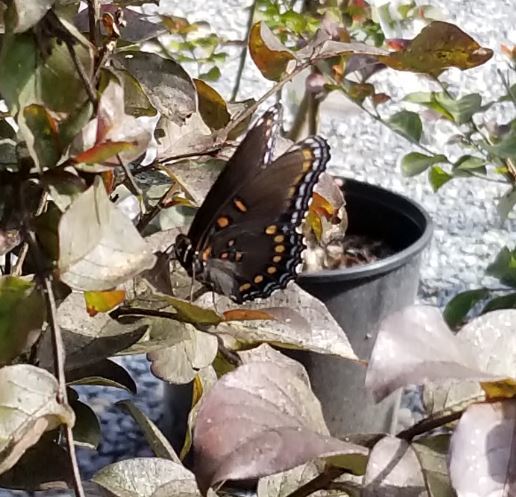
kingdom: Animalia
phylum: Arthropoda
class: Insecta
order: Lepidoptera
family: Nymphalidae
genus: Limenitis
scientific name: Limenitis astyanax
